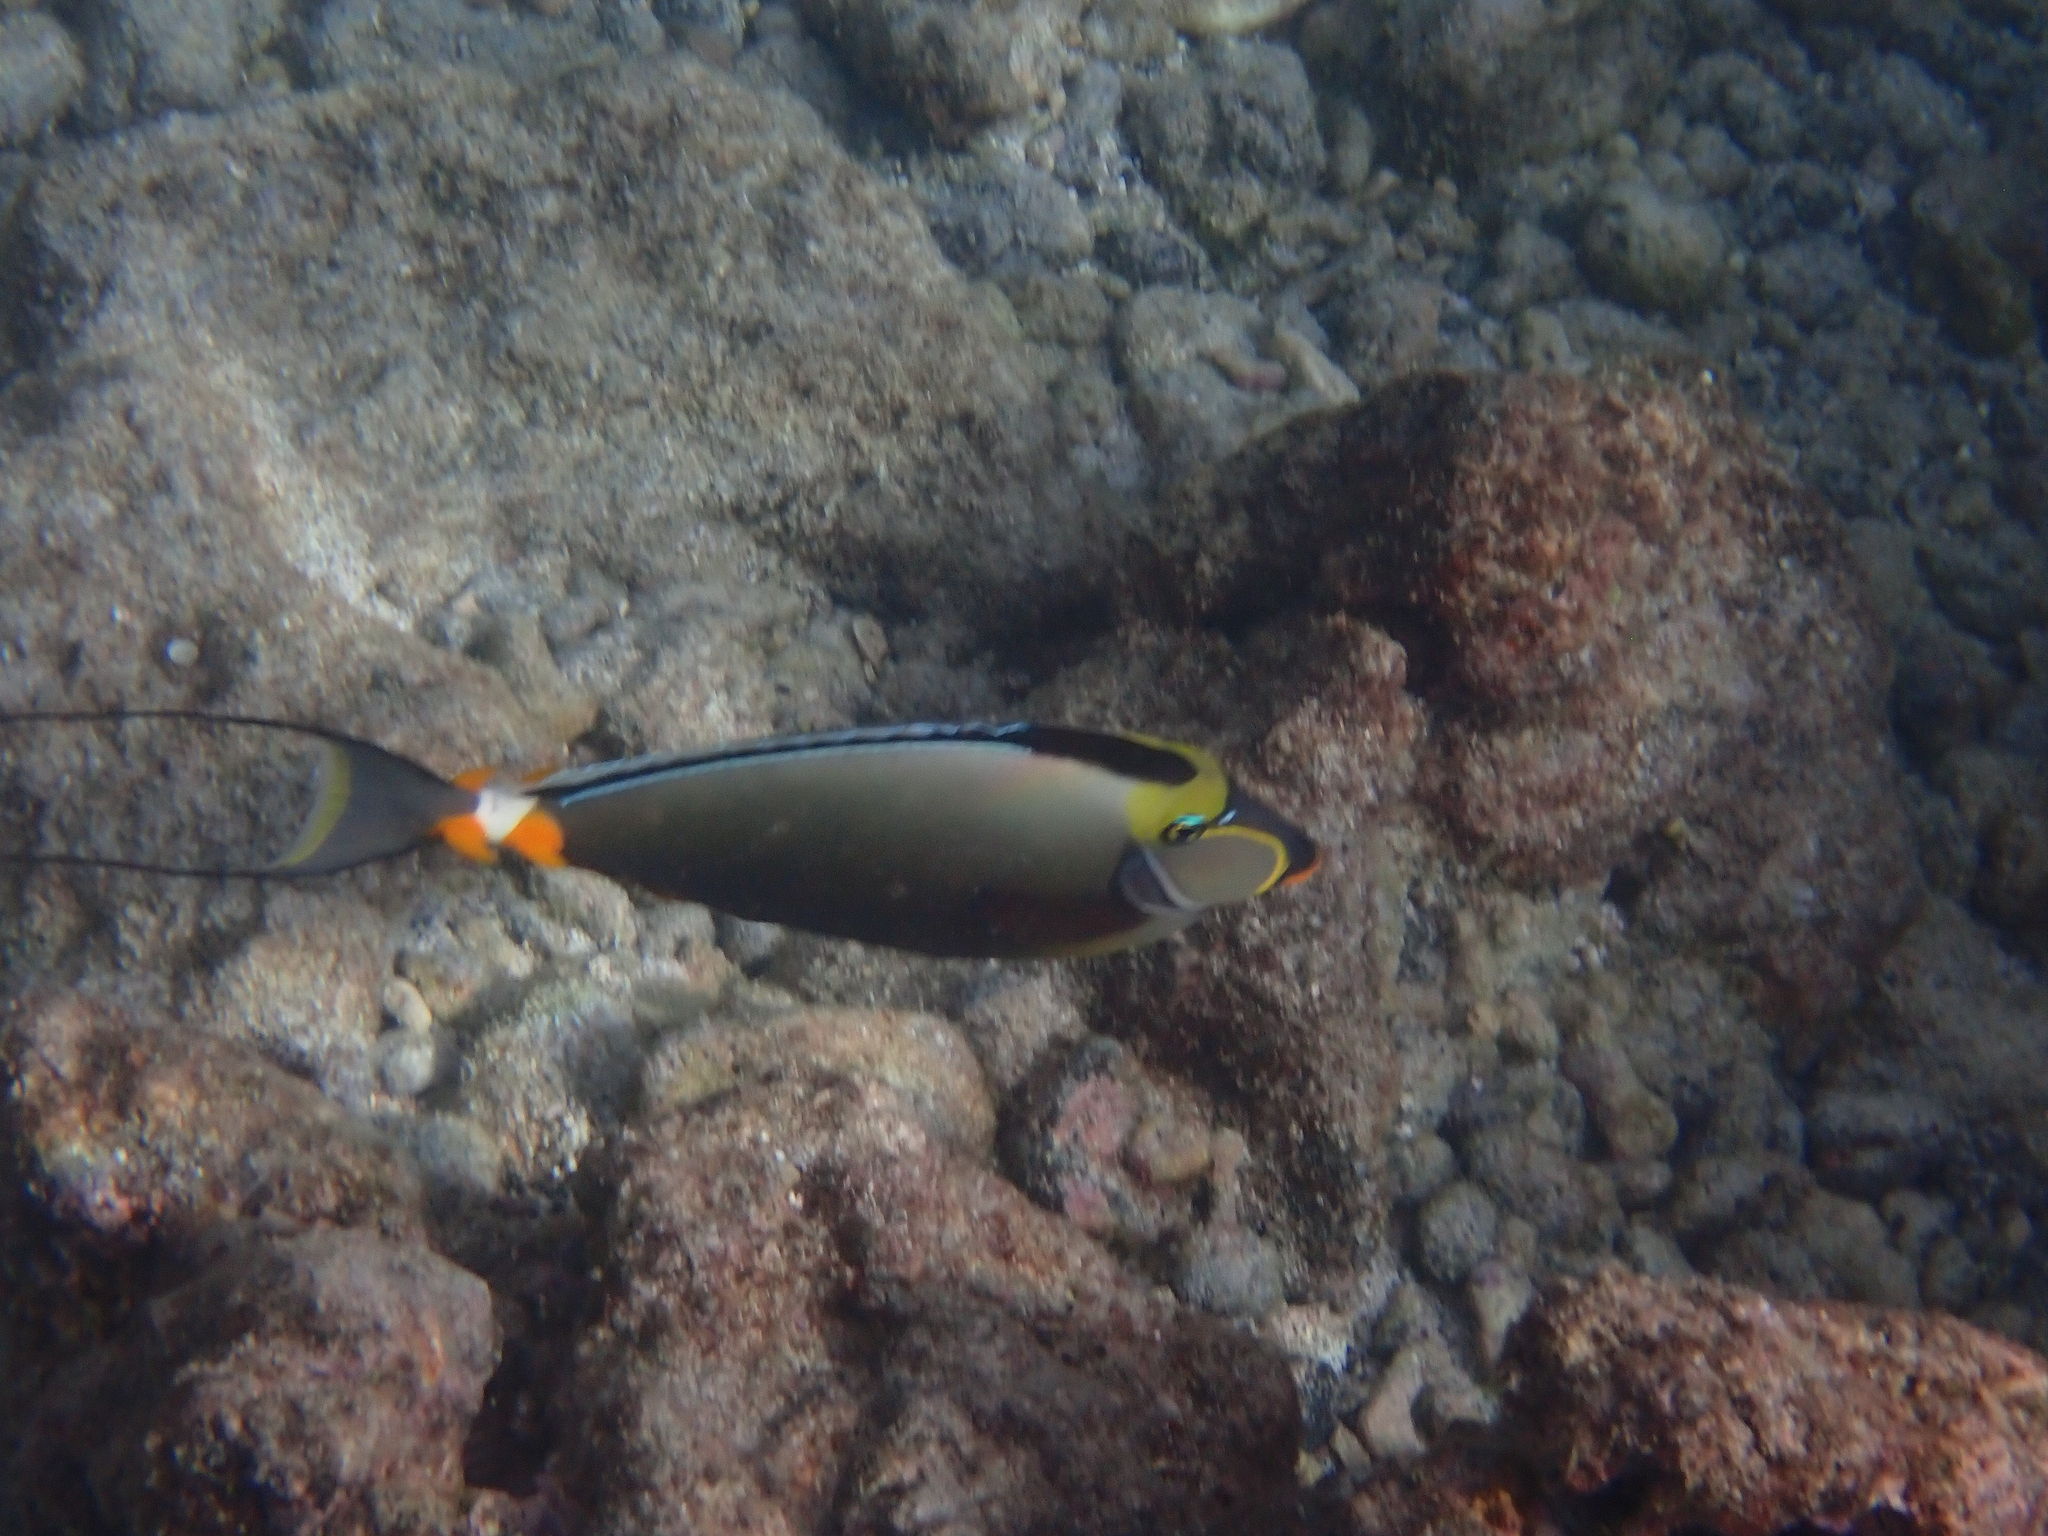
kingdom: Animalia
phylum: Chordata
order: Perciformes
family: Acanthuridae
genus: Naso
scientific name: Naso lituratus
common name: Orangespine unicornfish
